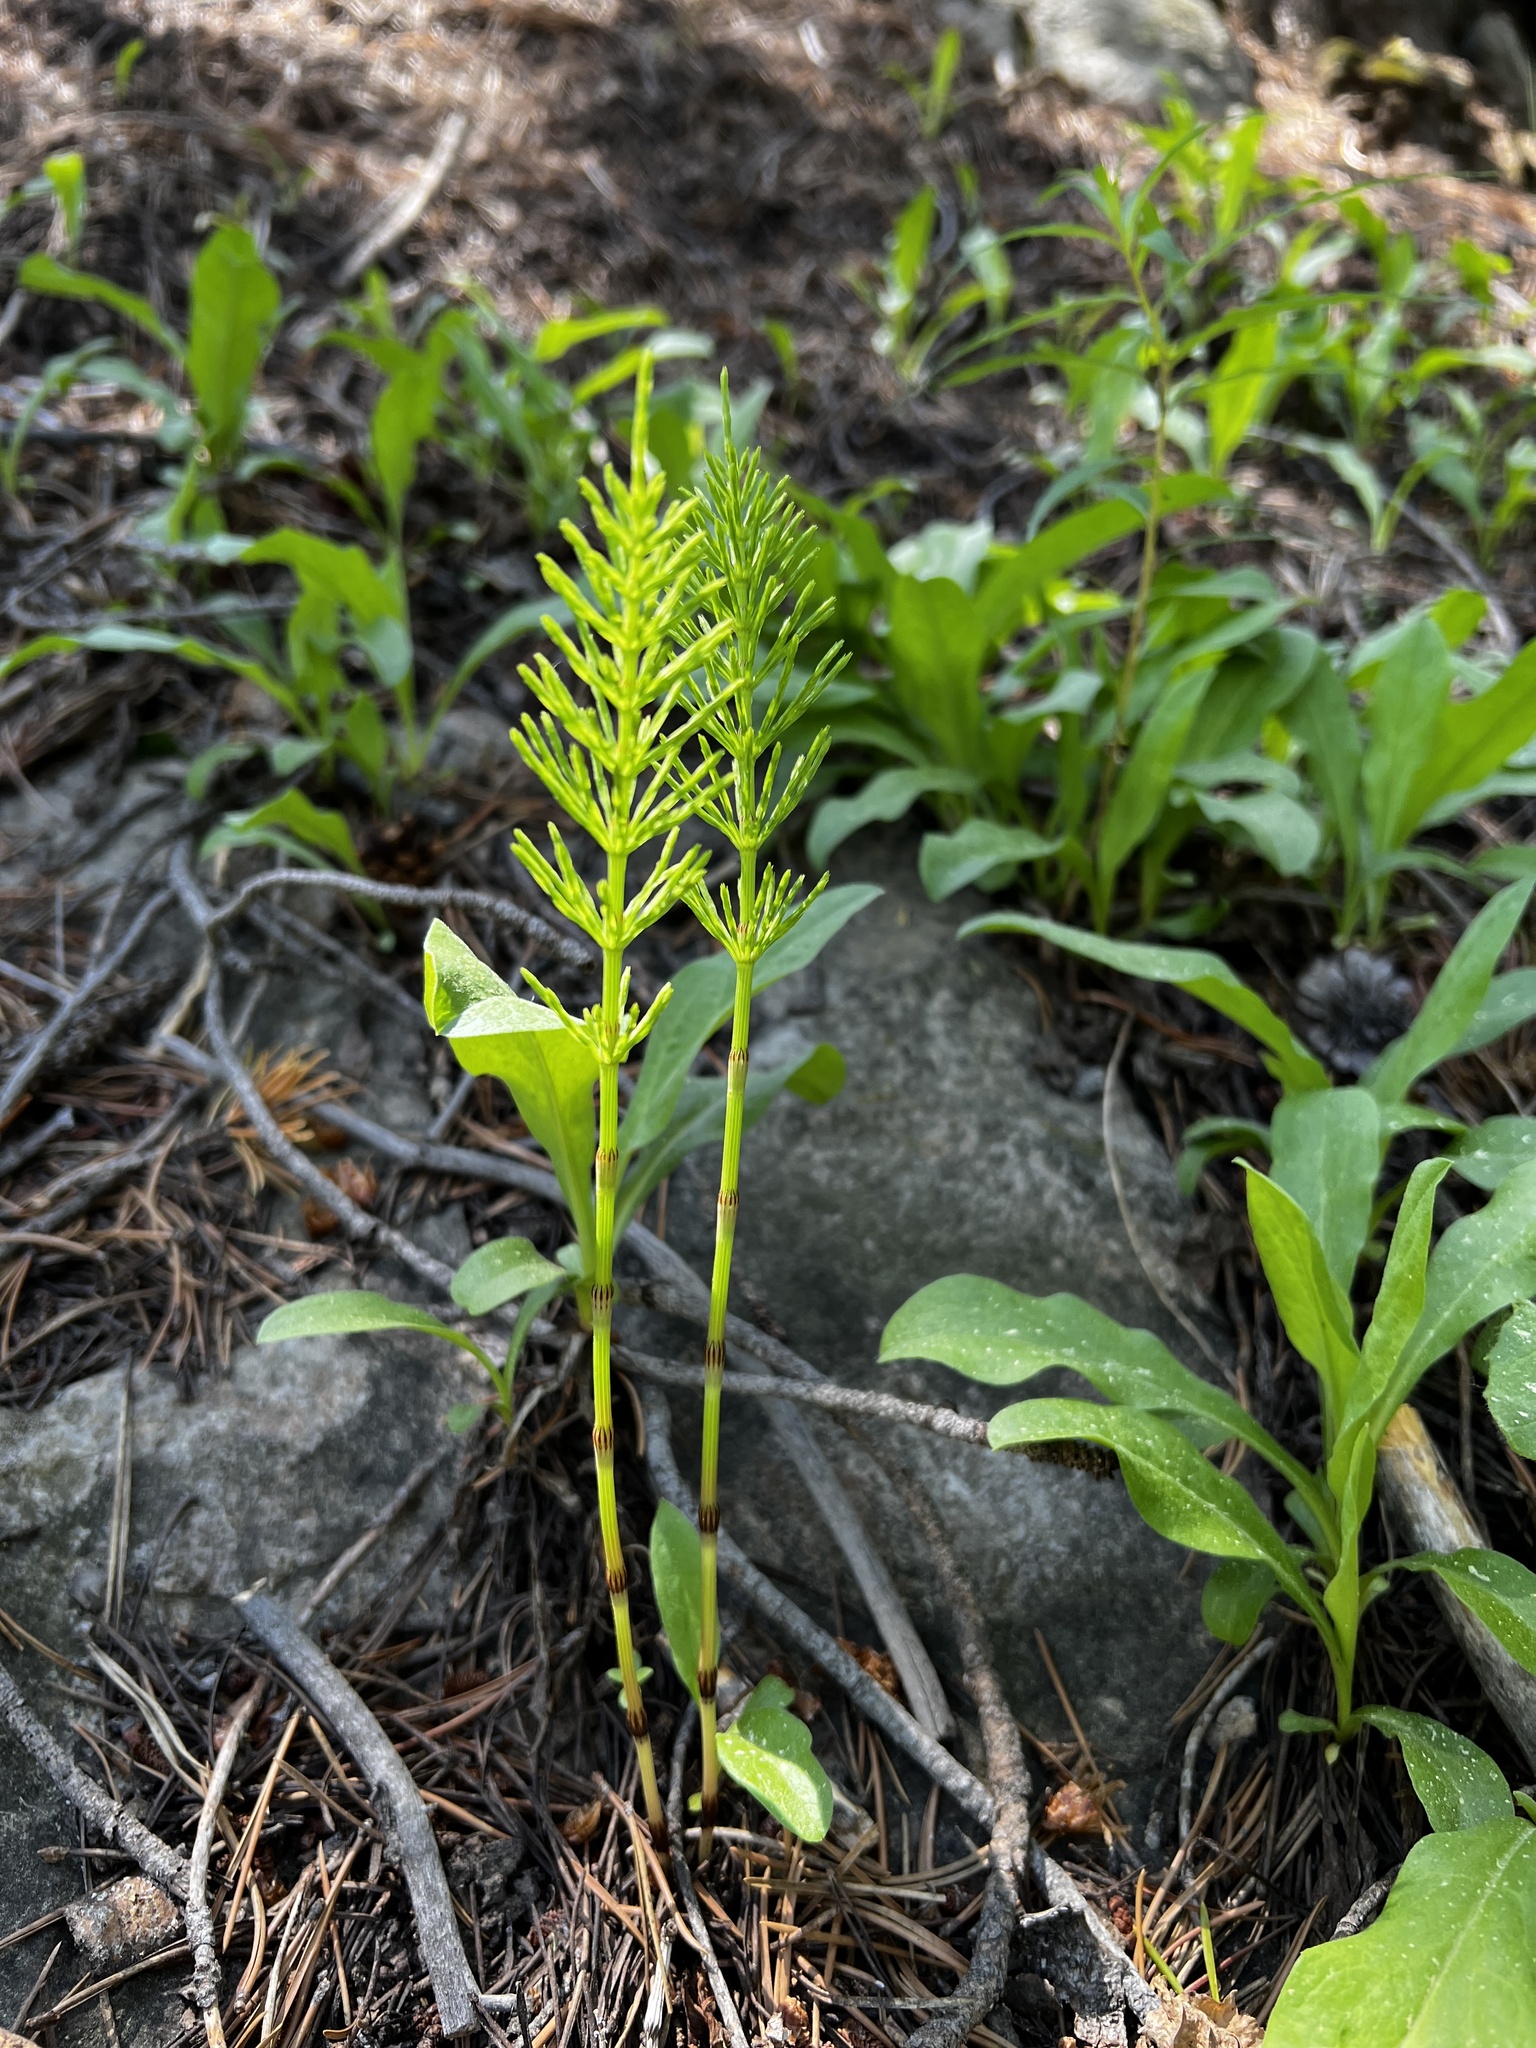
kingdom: Plantae
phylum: Tracheophyta
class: Polypodiopsida
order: Equisetales
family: Equisetaceae
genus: Equisetum
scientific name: Equisetum arvense
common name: Field horsetail
